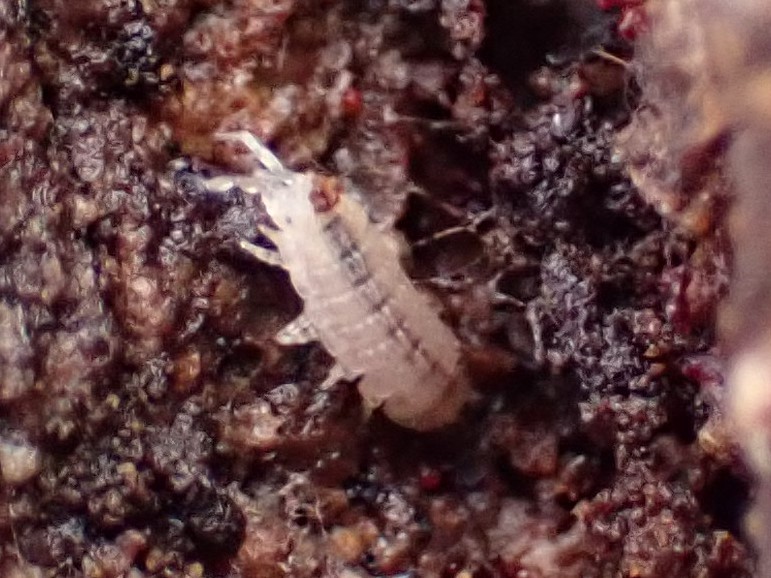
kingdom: Animalia
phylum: Arthropoda
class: Malacostraca
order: Isopoda
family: Trichoniscidae
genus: Haplophthalmus
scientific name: Haplophthalmus danicus
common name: Pillbug
